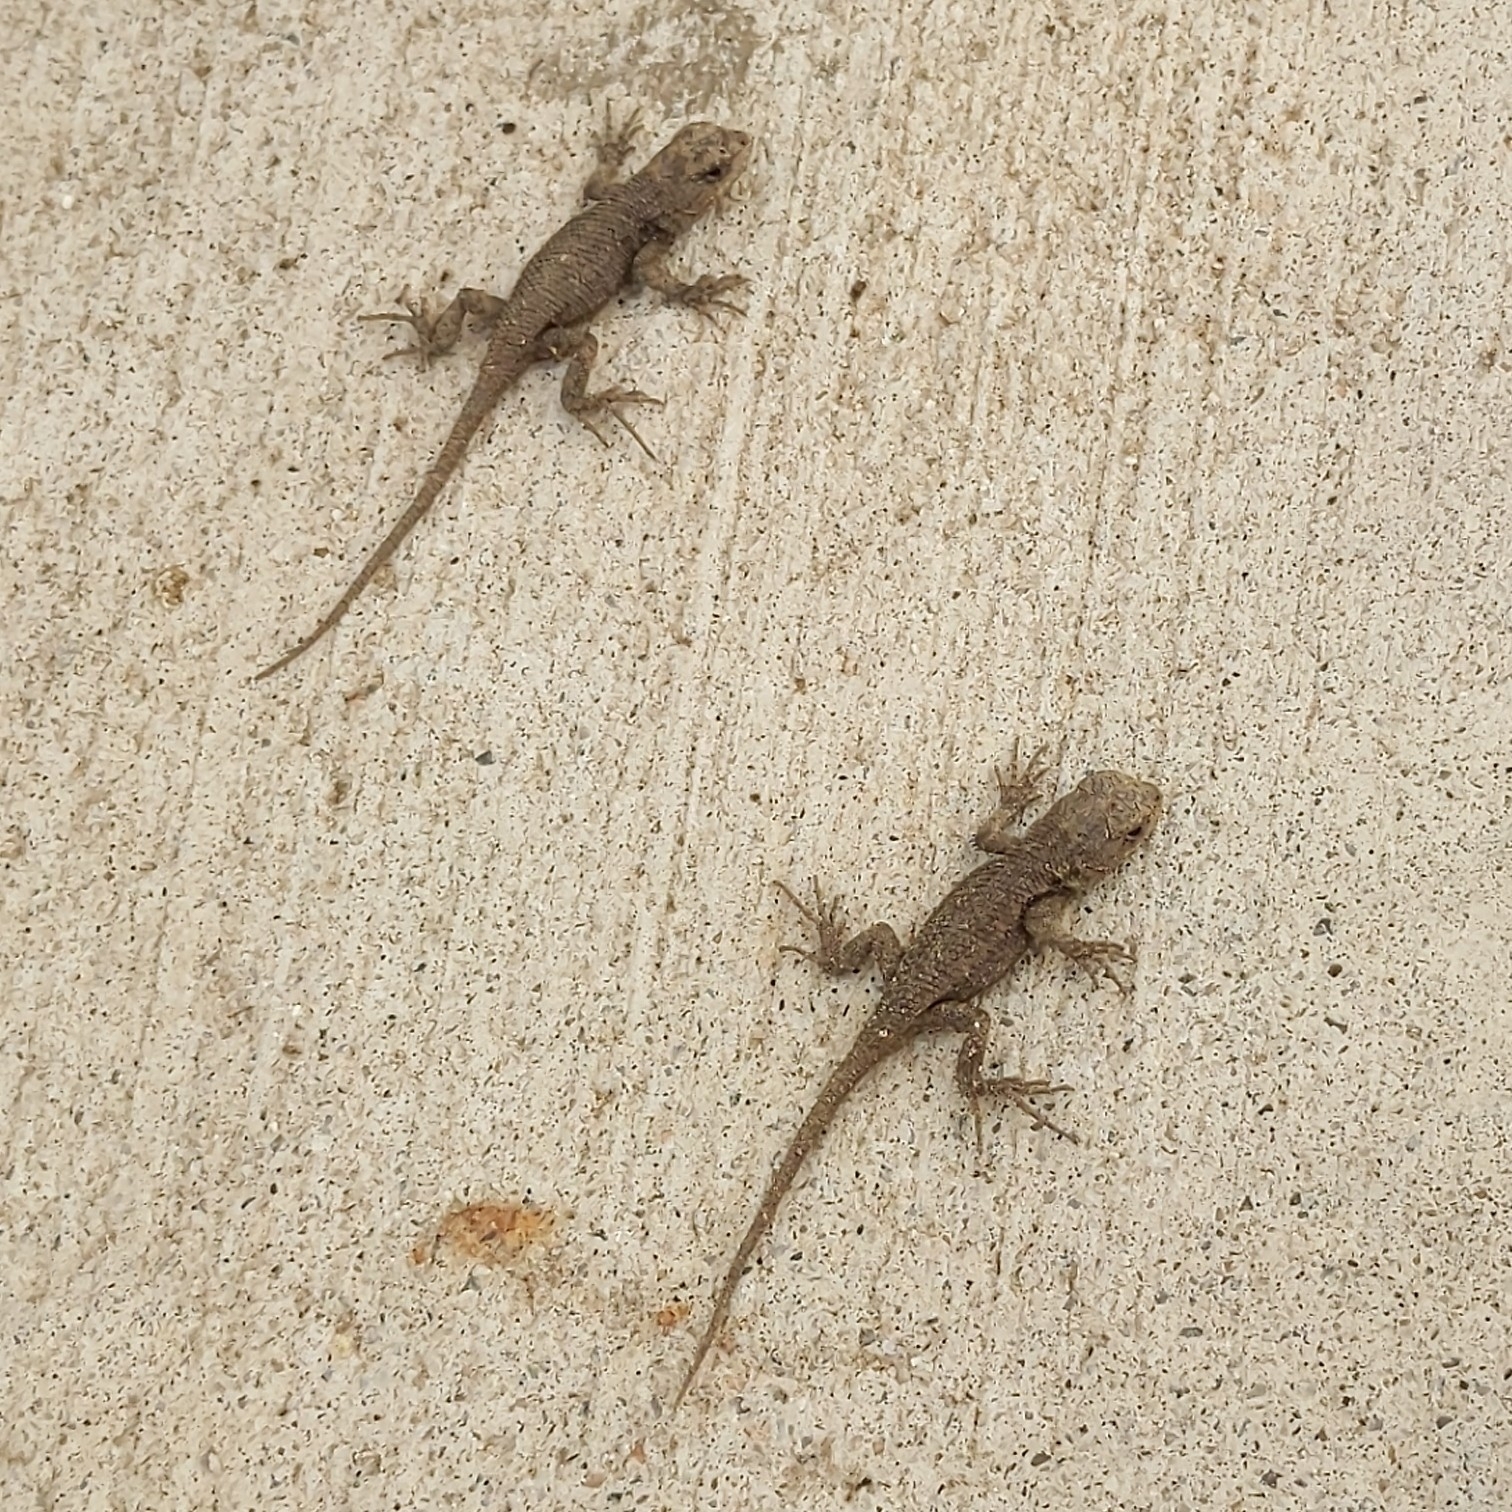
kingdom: Animalia
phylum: Chordata
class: Squamata
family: Phrynosomatidae
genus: Sceloporus
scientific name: Sceloporus occidentalis
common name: Western fence lizard
